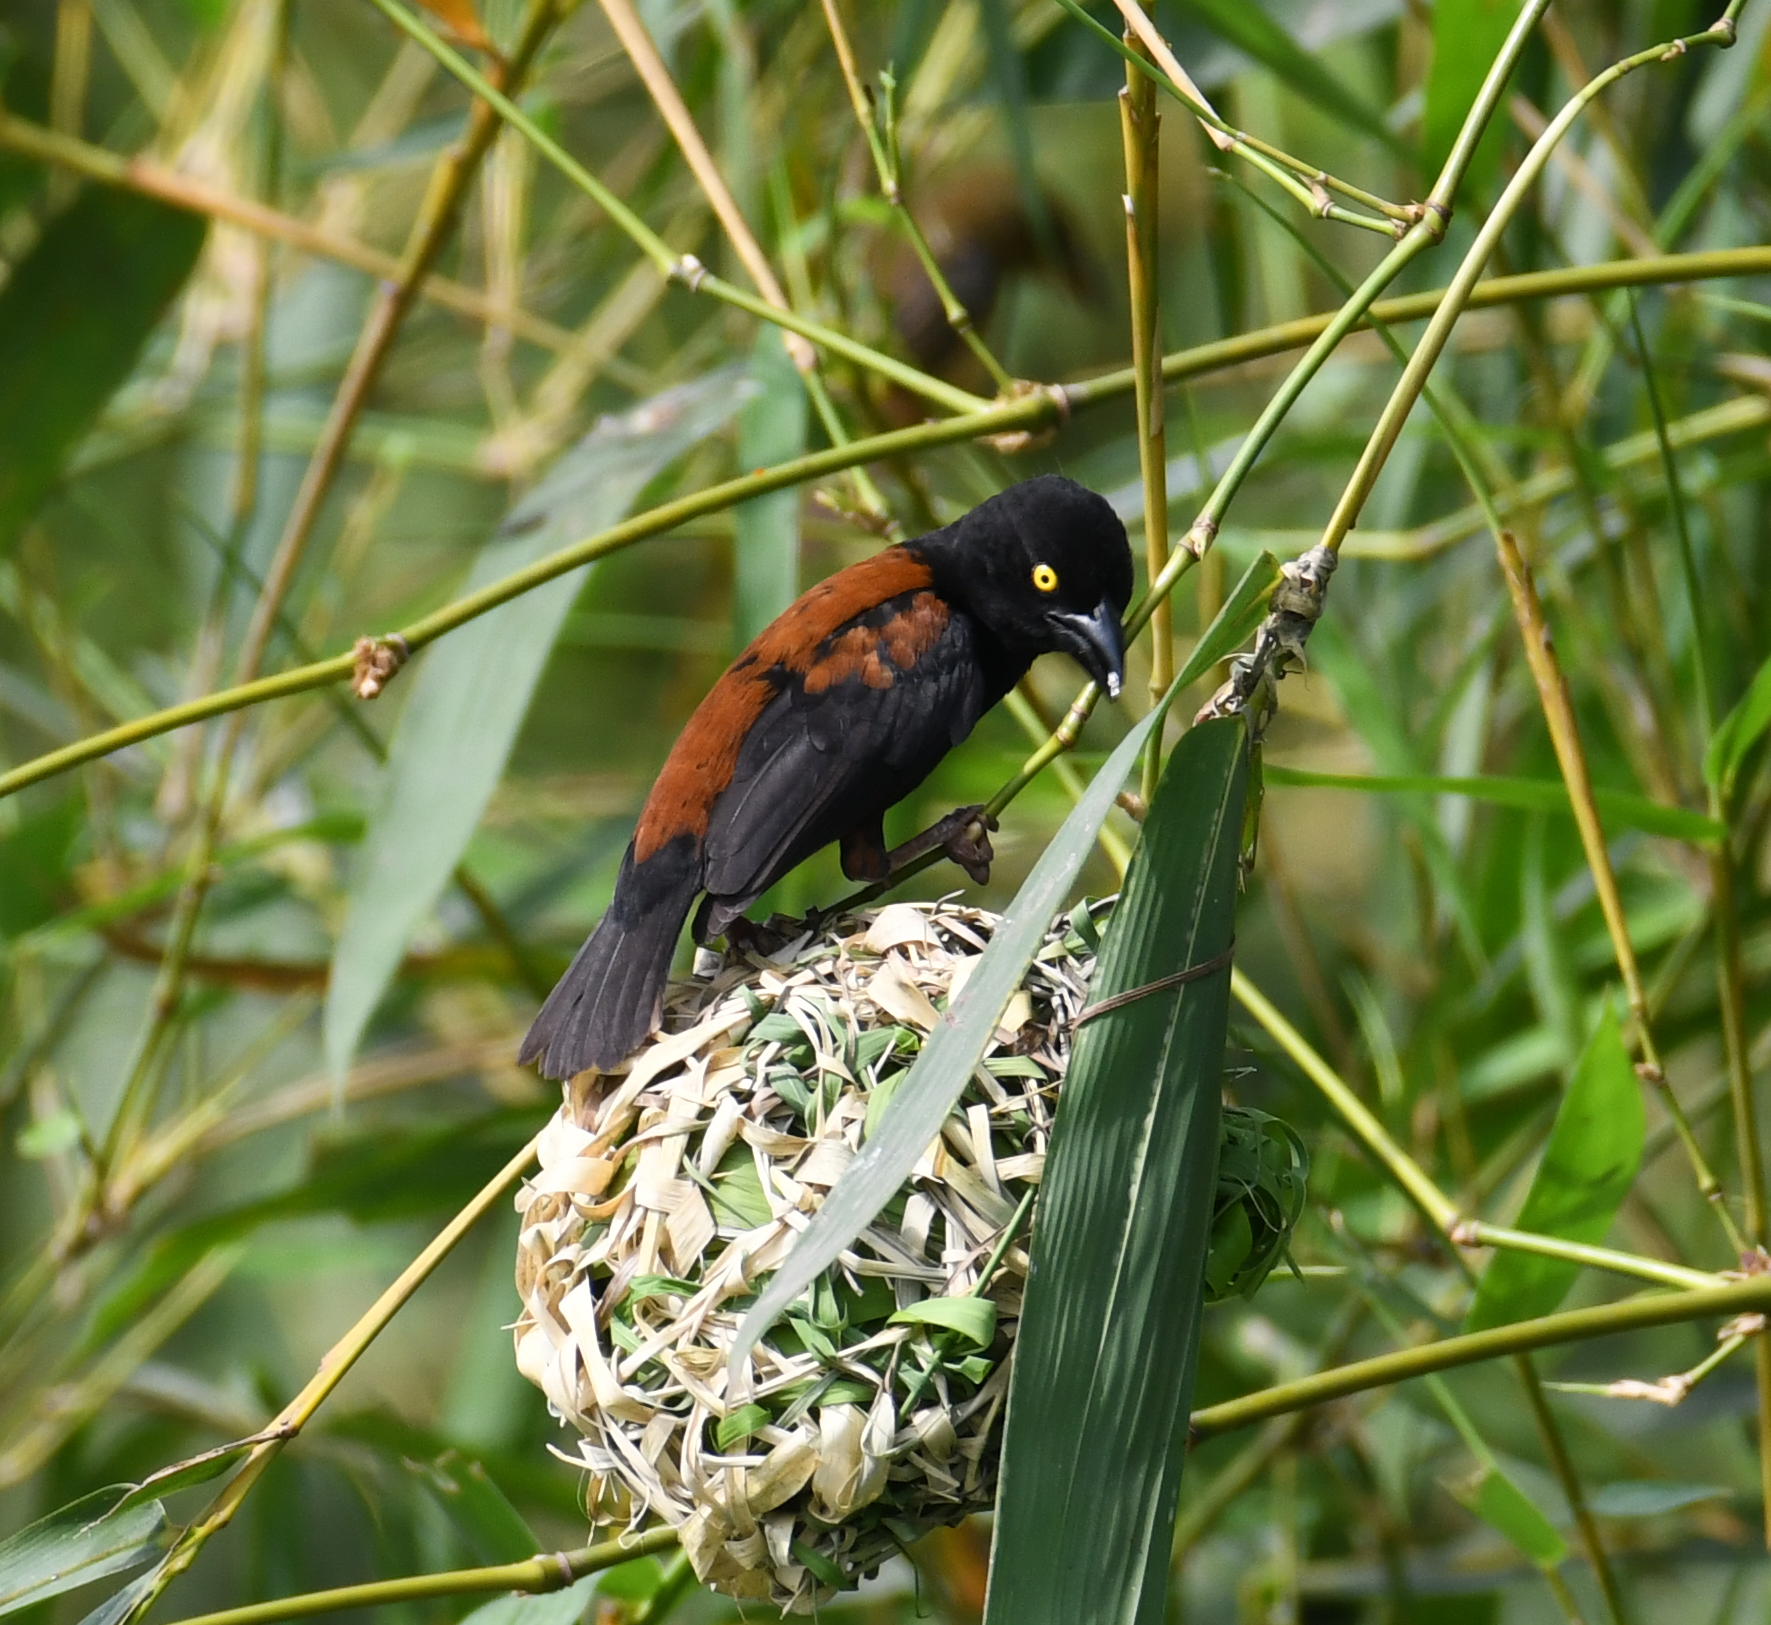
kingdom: Animalia
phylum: Chordata
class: Aves
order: Passeriformes
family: Ploceidae
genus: Ploceus
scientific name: Ploceus castaneofuscus
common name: Chestnut-and-black weaver
